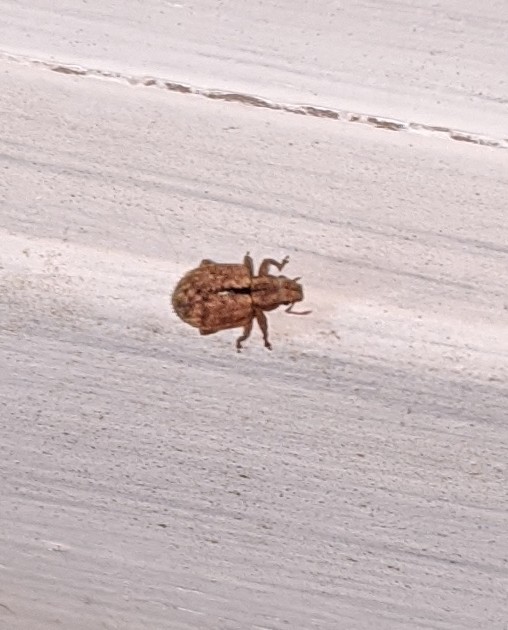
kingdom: Animalia
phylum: Arthropoda
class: Insecta
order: Coleoptera
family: Curculionidae
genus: Strophosoma
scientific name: Strophosoma melanogrammum
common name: Weevil
